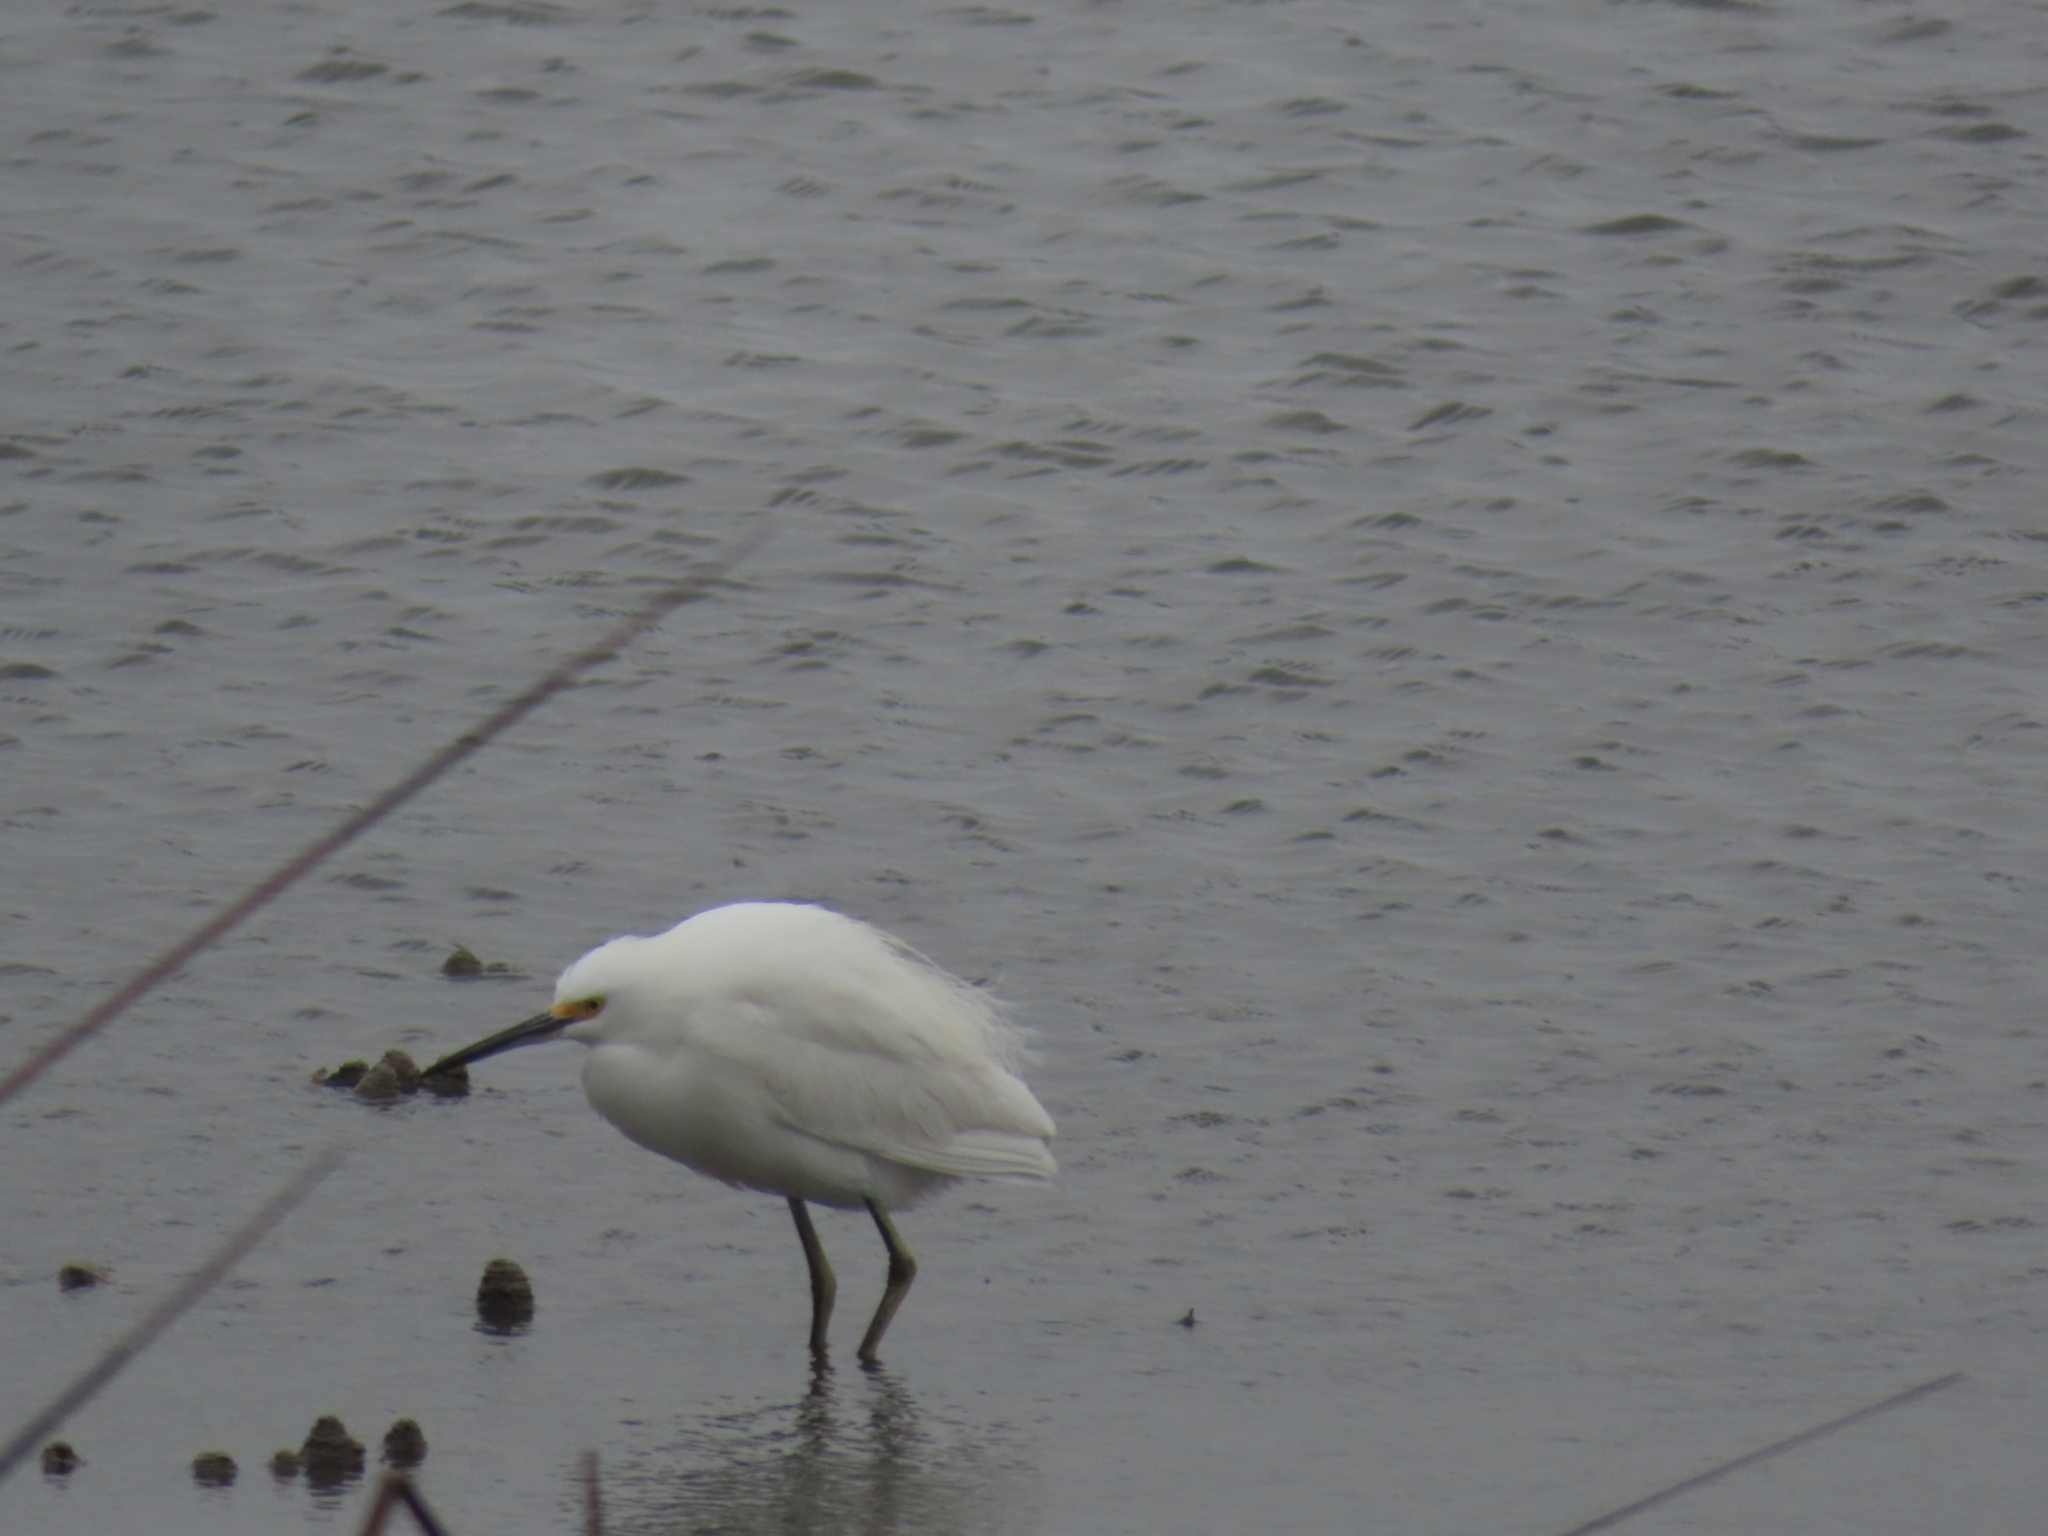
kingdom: Animalia
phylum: Chordata
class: Aves
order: Pelecaniformes
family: Ardeidae
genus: Egretta
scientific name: Egretta thula
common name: Snowy egret
